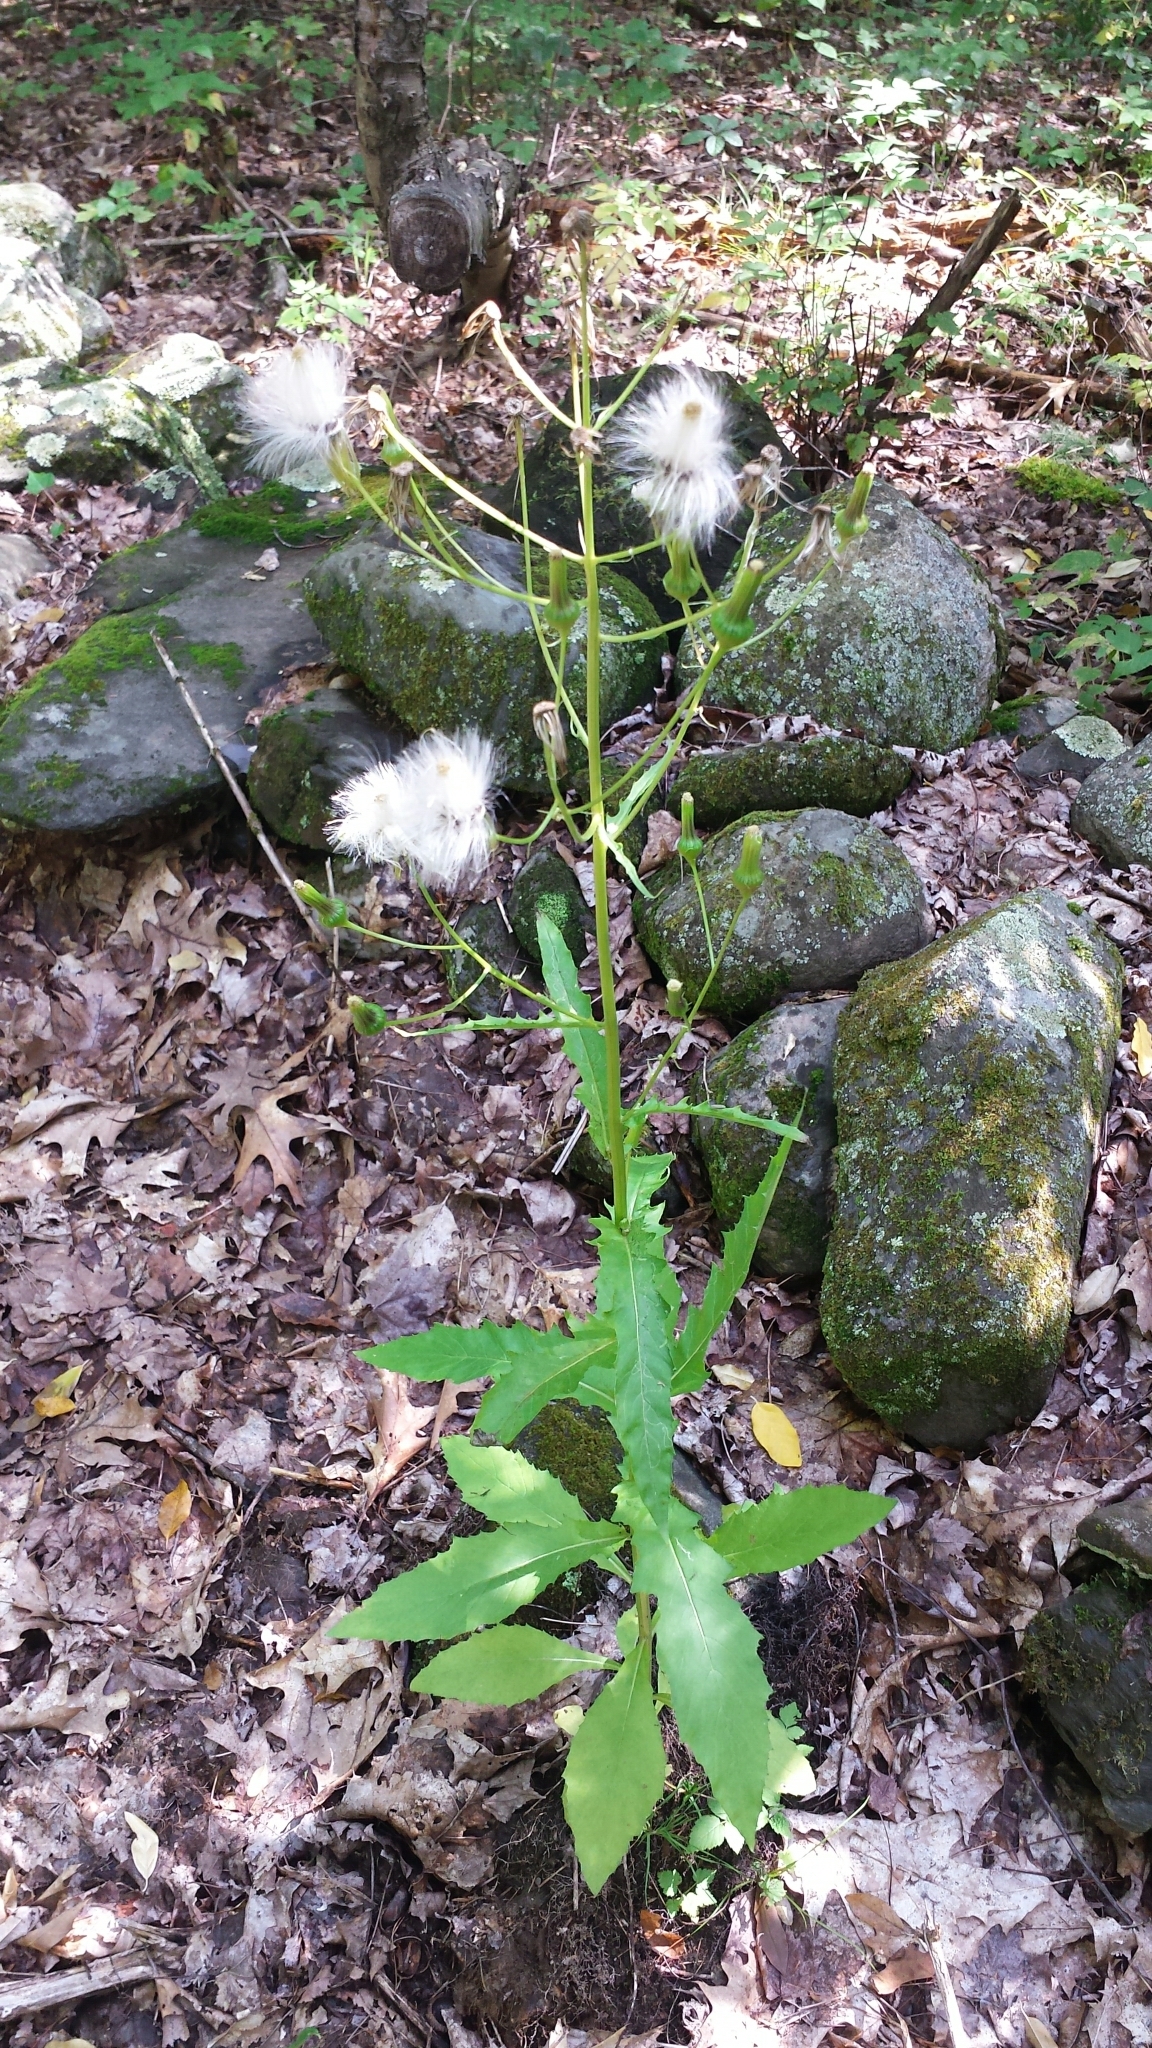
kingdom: Plantae
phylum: Tracheophyta
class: Magnoliopsida
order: Asterales
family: Asteraceae
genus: Erechtites
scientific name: Erechtites hieraciifolius
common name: American burnweed
